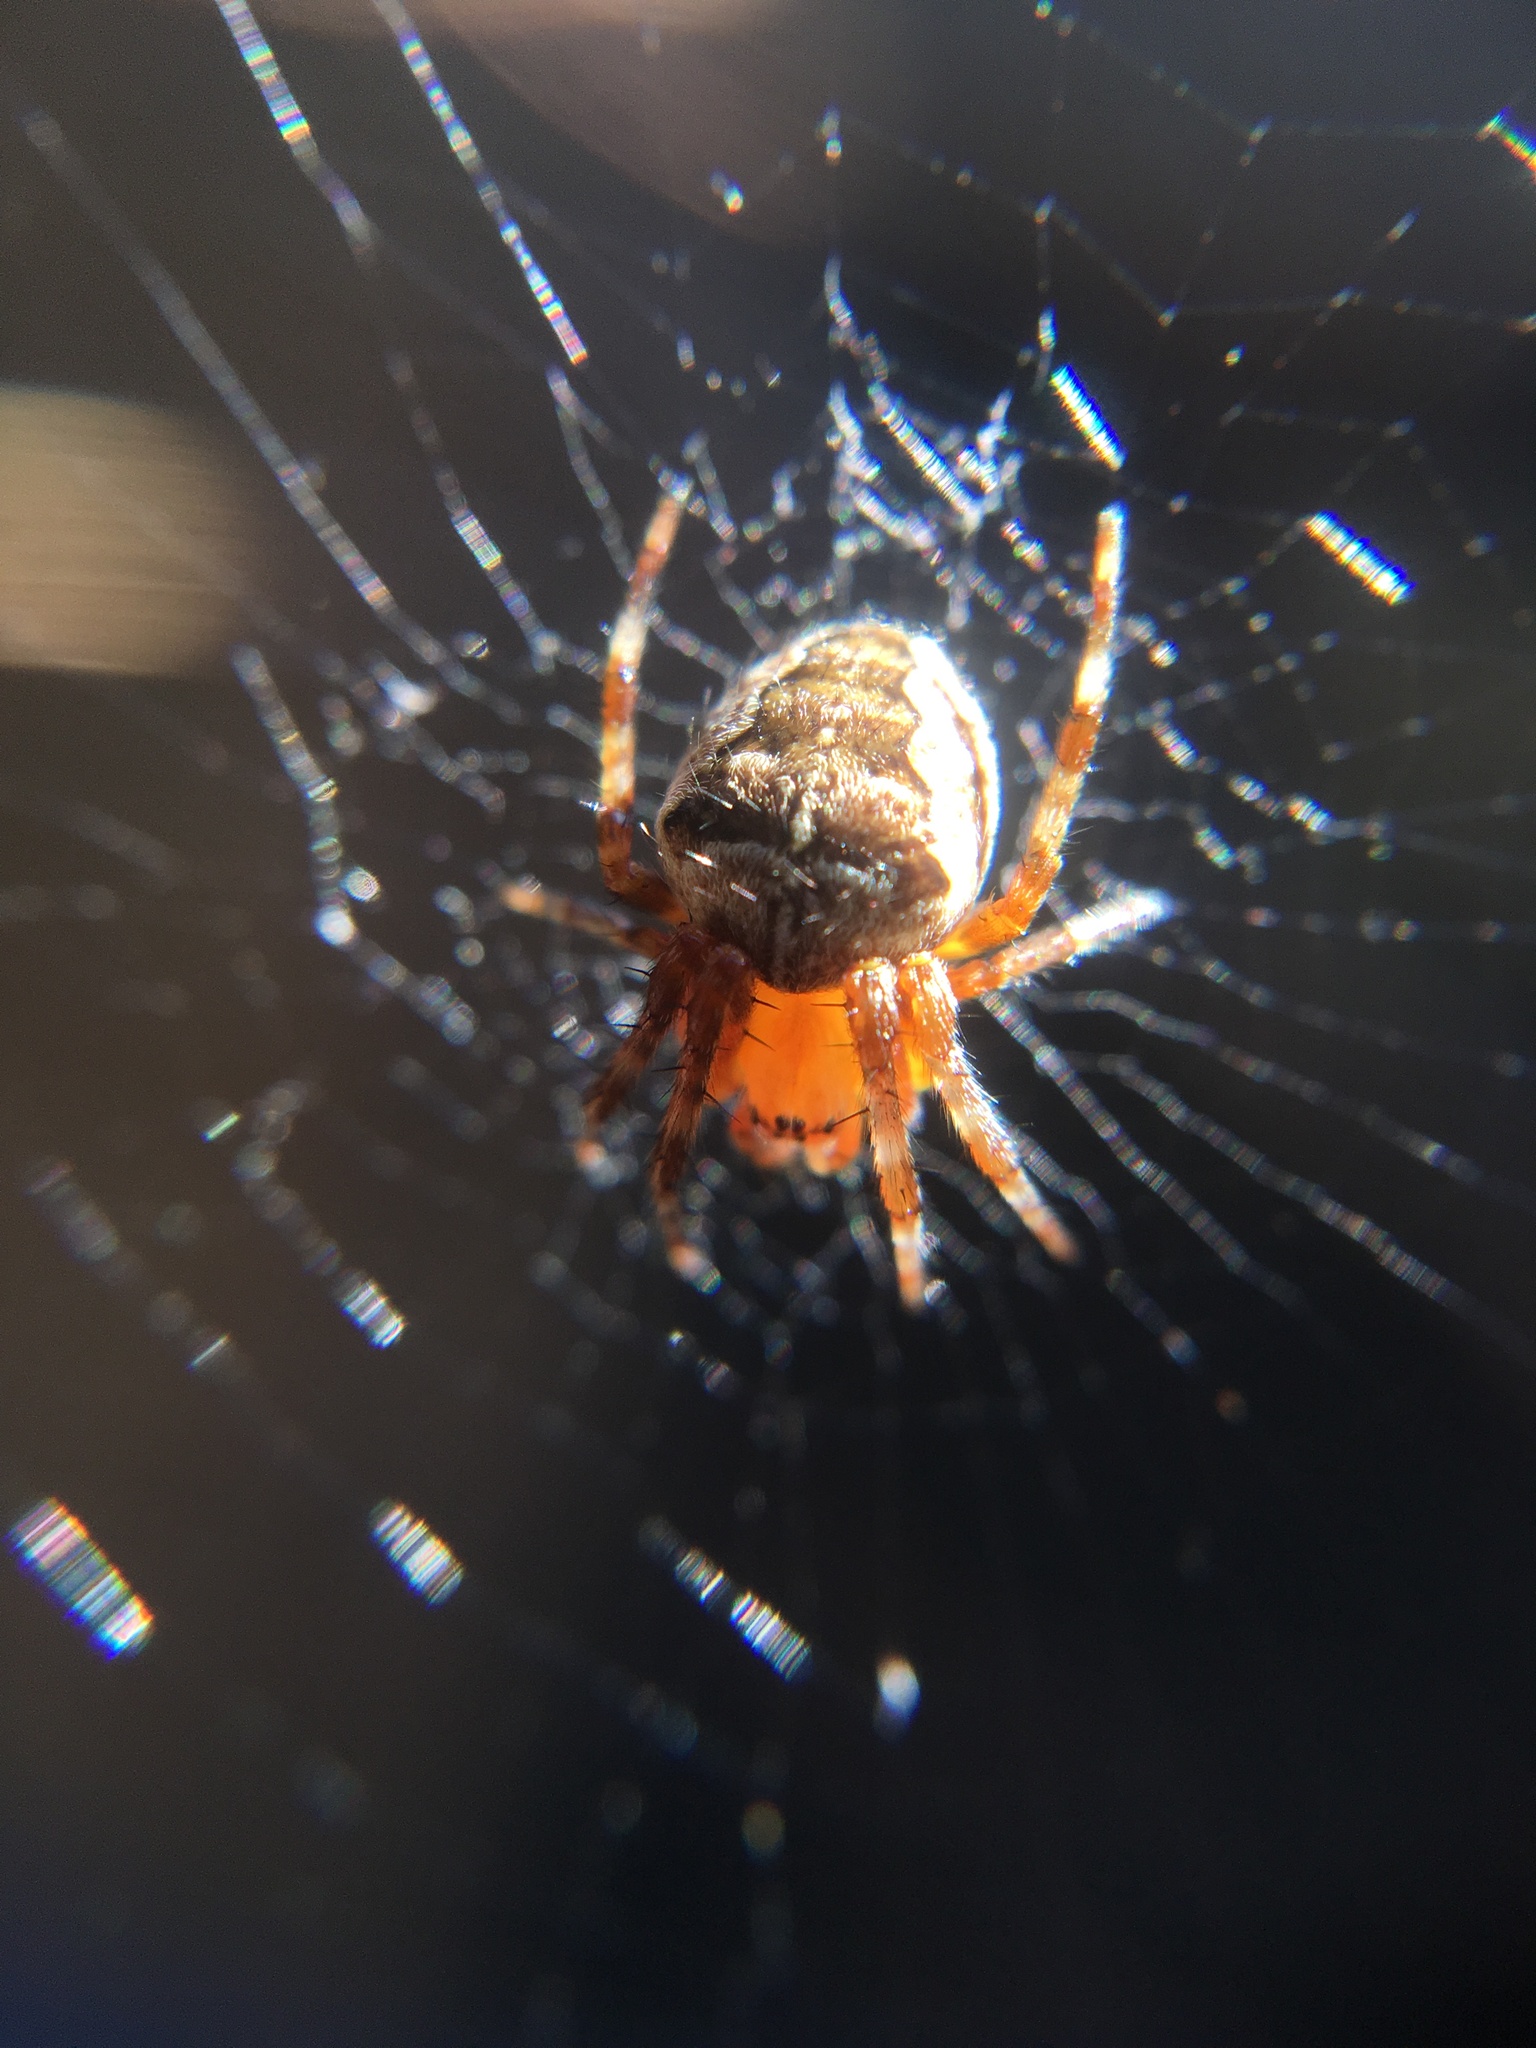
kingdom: Animalia
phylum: Arthropoda
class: Arachnida
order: Araneae
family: Araneidae
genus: Araneus
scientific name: Araneus diadematus
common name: Cross orbweaver
